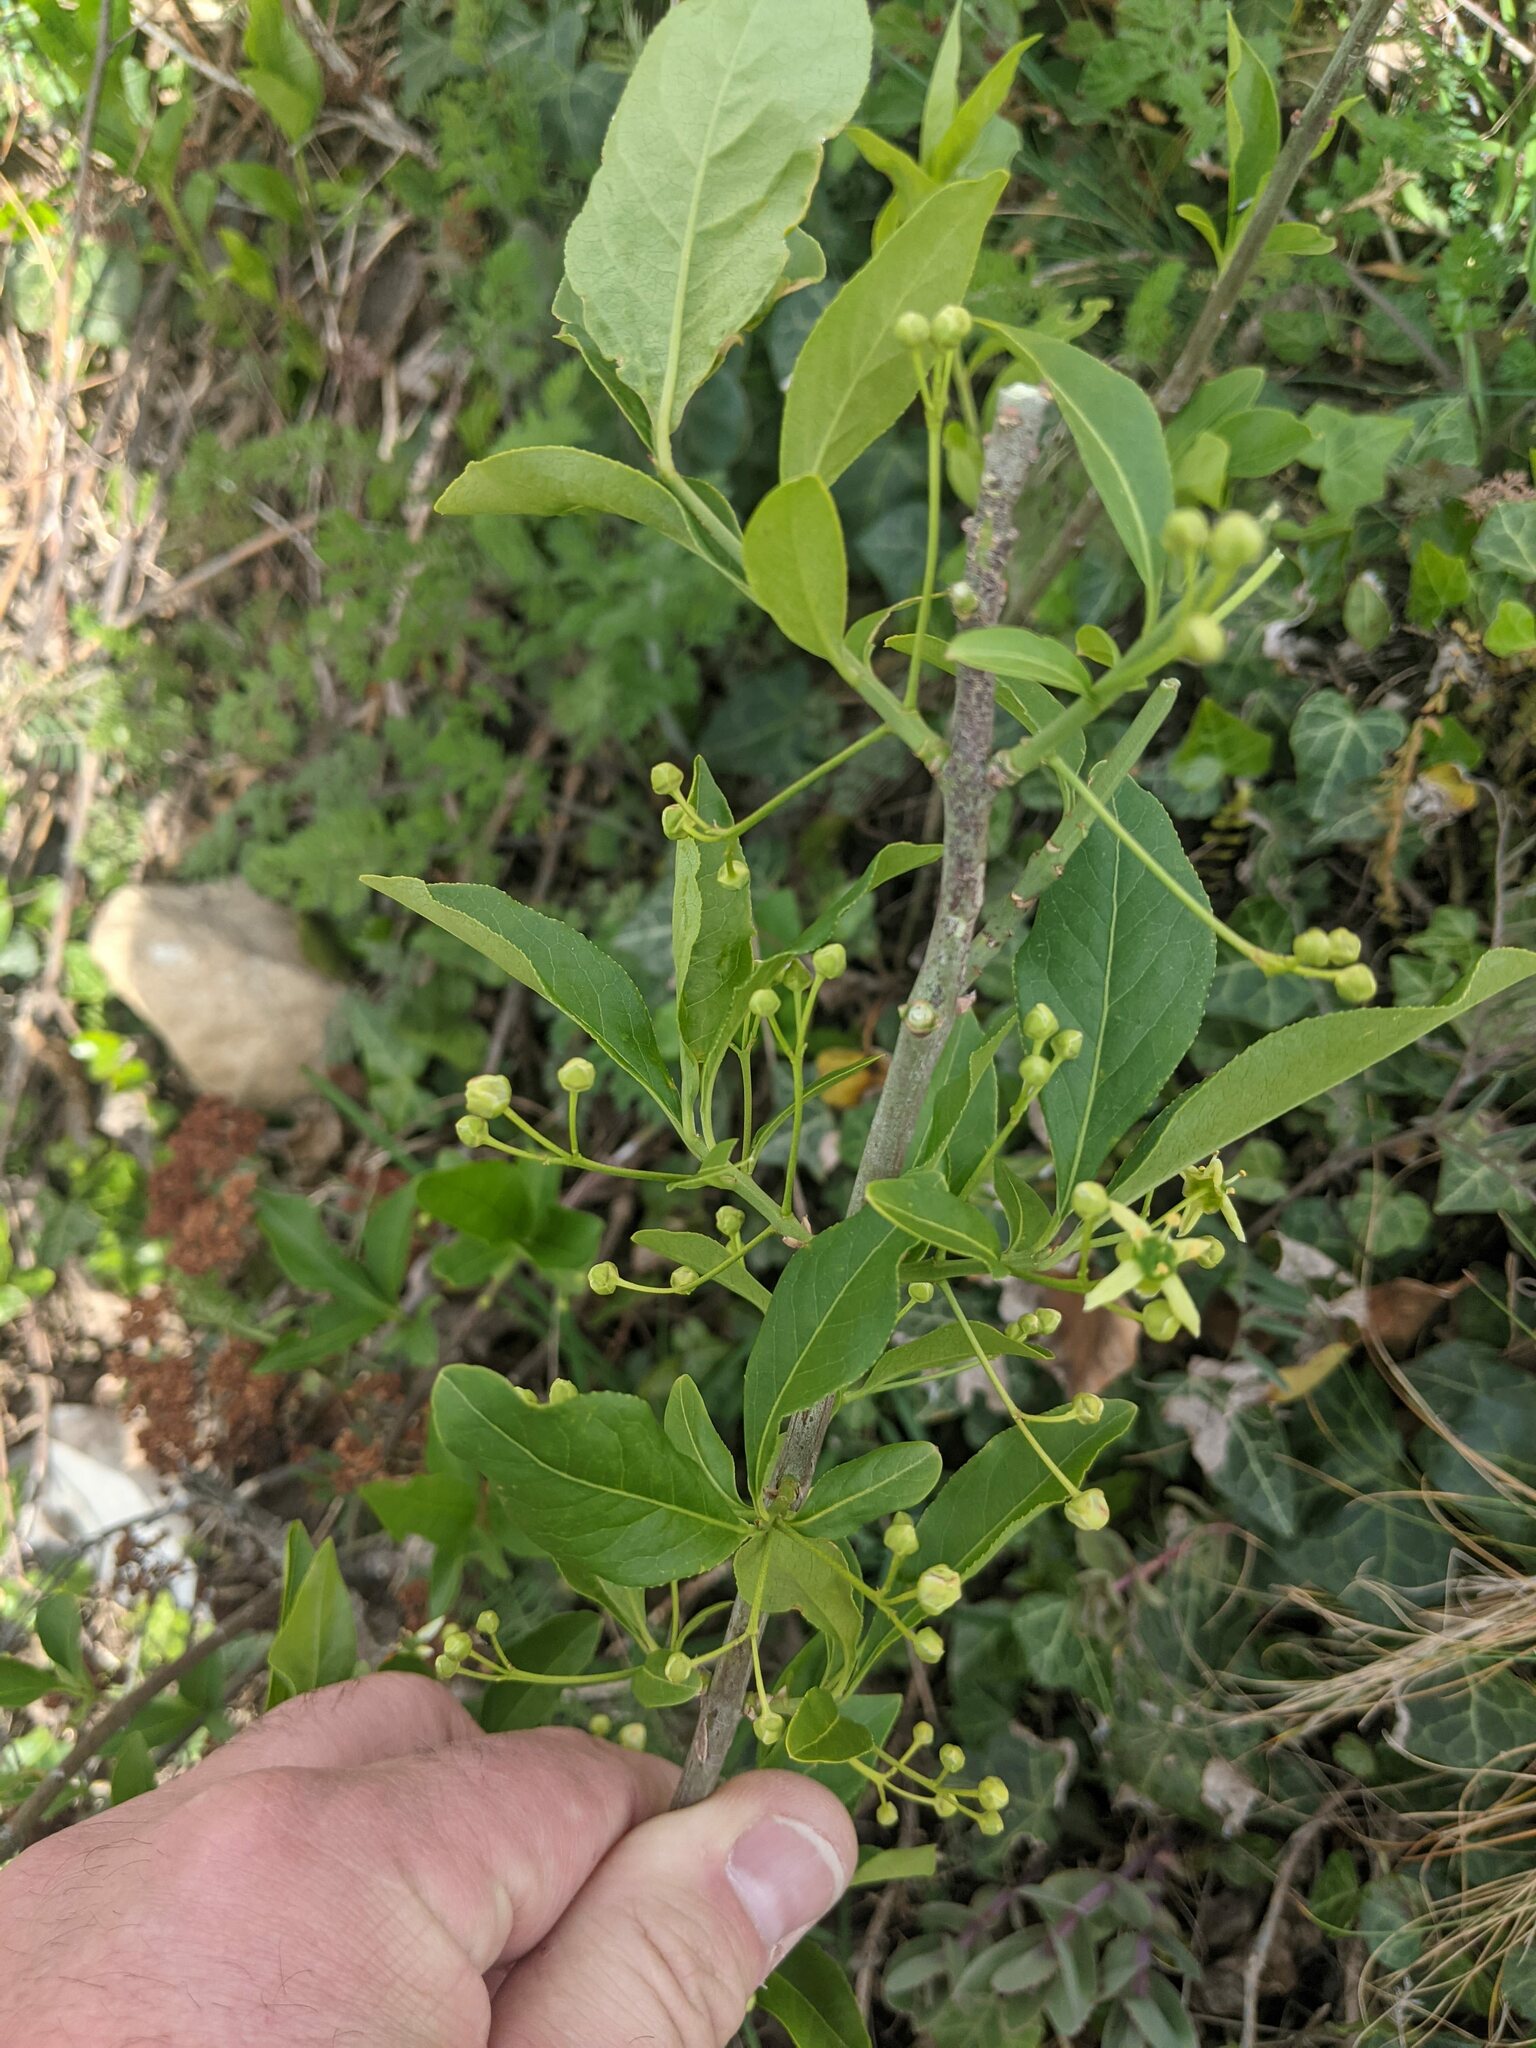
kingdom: Plantae
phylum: Tracheophyta
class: Magnoliopsida
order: Celastrales
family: Celastraceae
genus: Euonymus
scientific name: Euonymus europaeus
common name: Spindle
